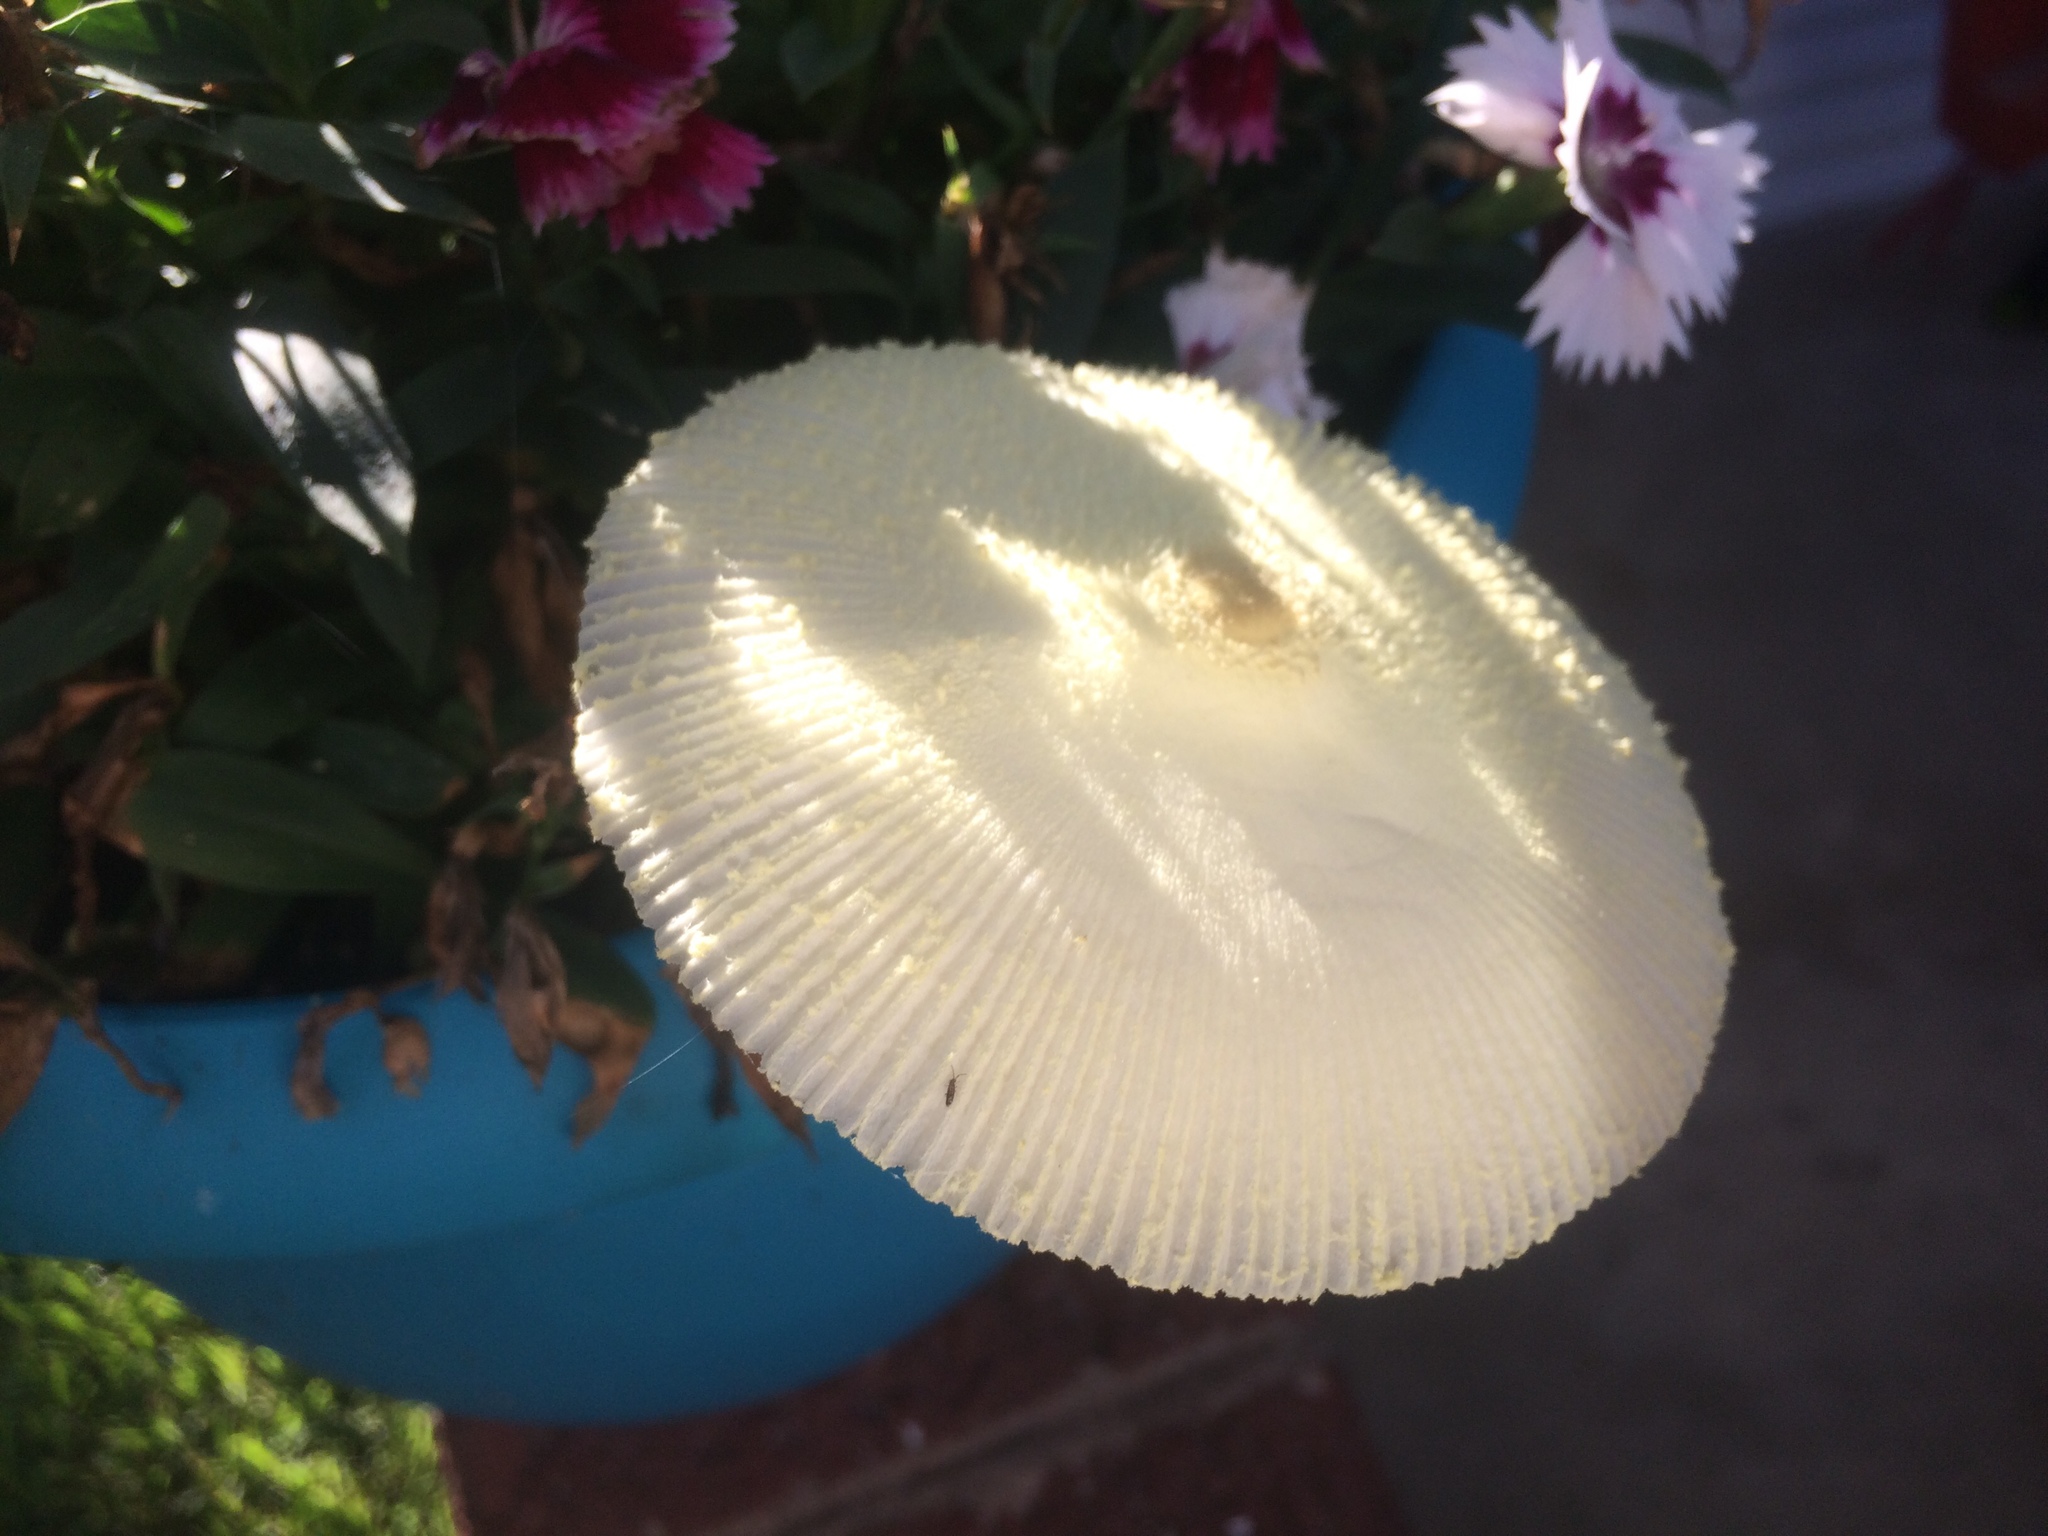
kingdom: Fungi
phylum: Basidiomycota
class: Agaricomycetes
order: Agaricales
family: Agaricaceae
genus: Leucocoprinus
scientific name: Leucocoprinus birnbaumii
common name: Plantpot dapperling
